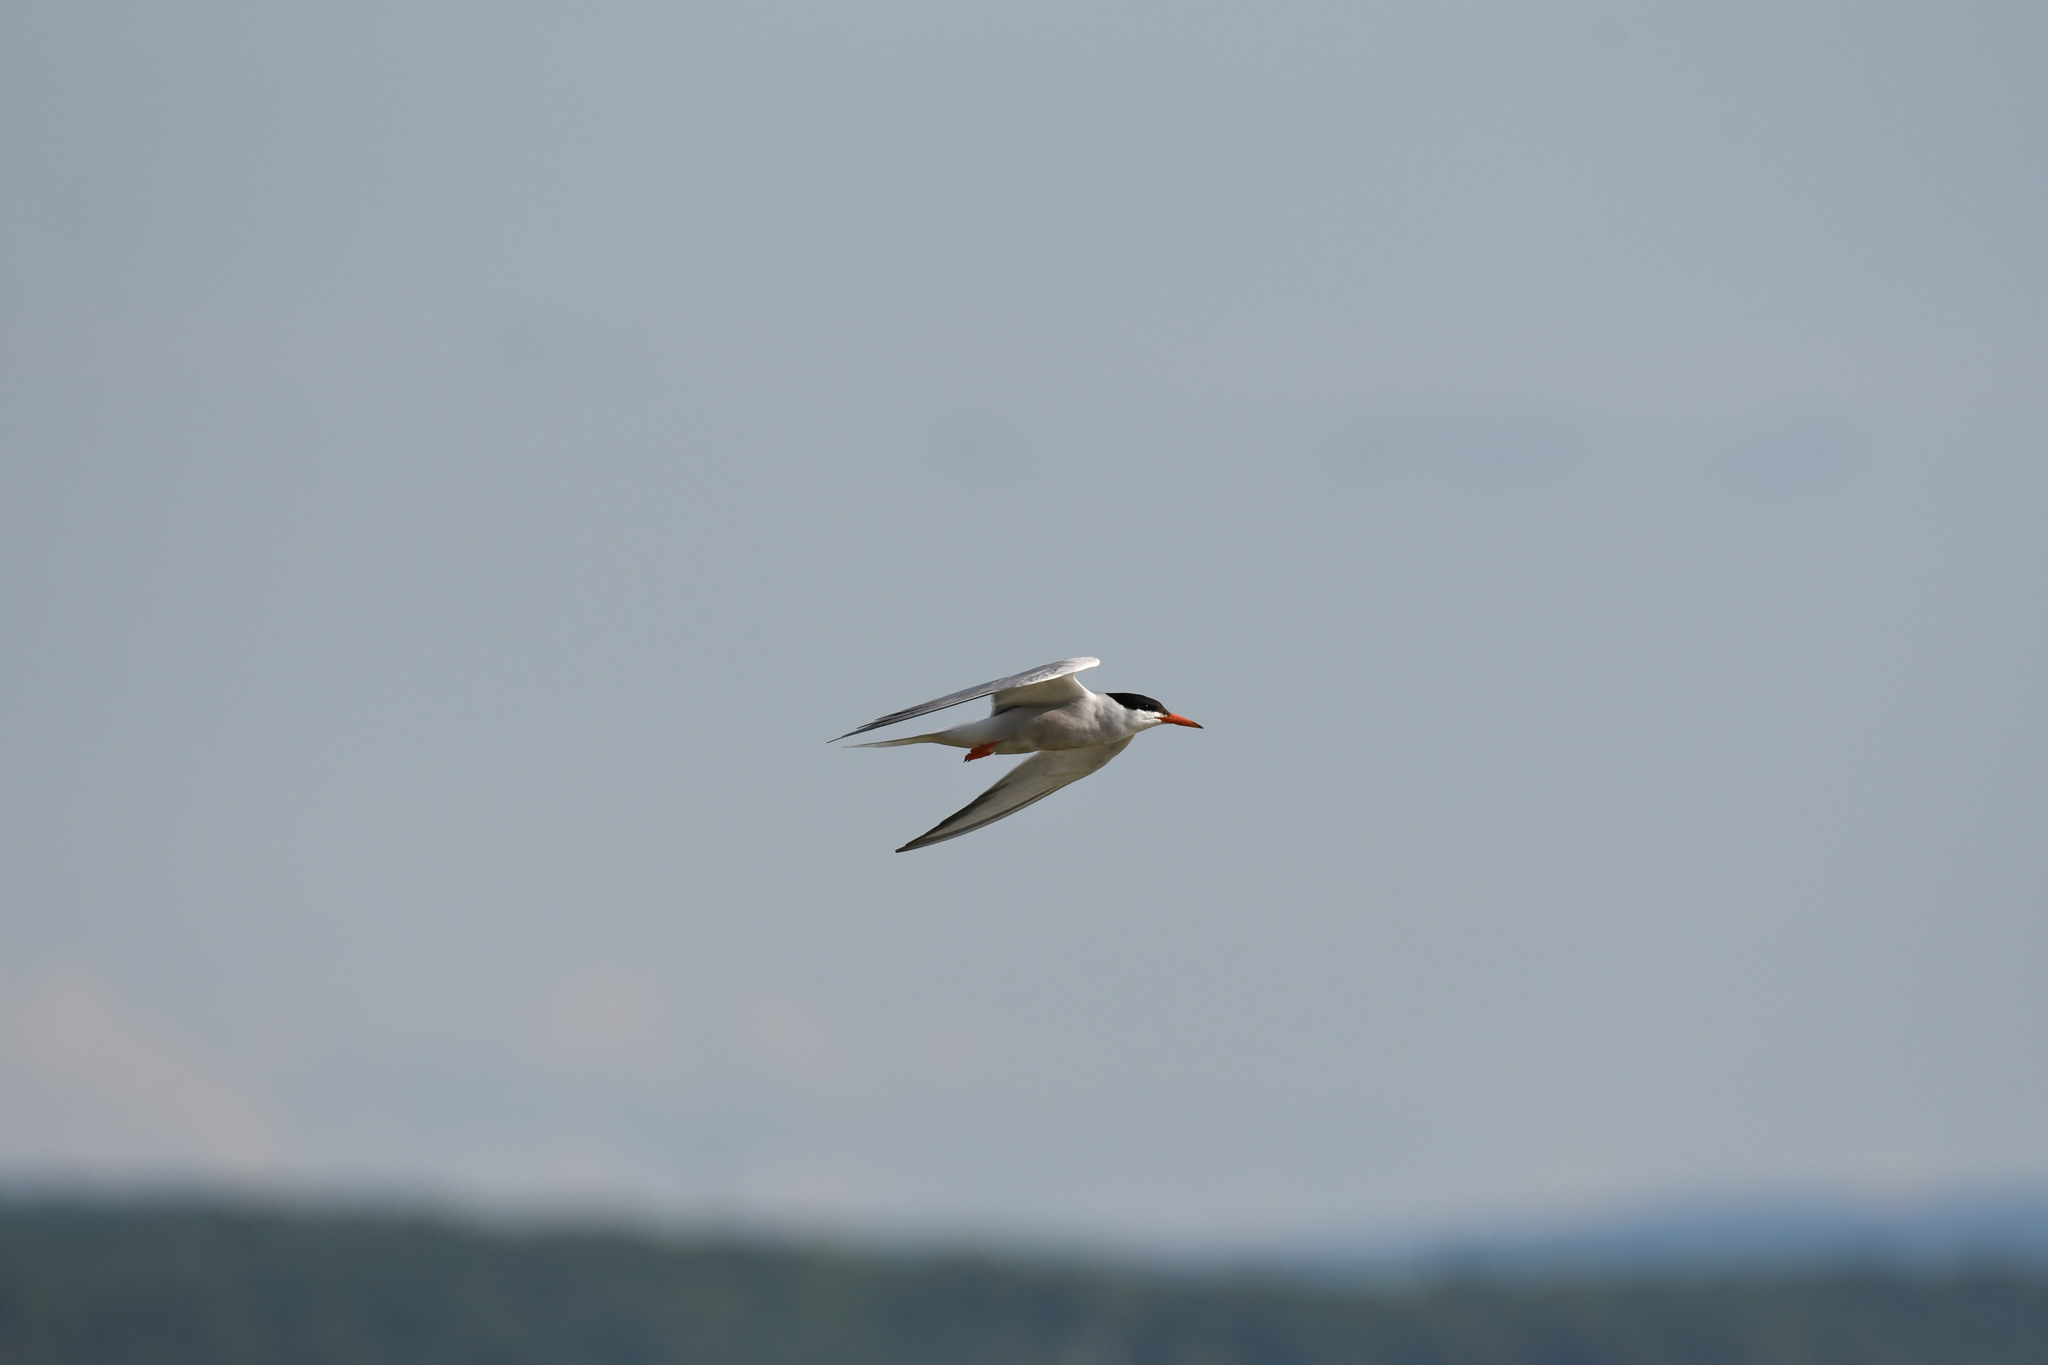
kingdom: Animalia
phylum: Chordata
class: Aves
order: Charadriiformes
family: Laridae
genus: Sterna
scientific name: Sterna hirundo
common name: Common tern
